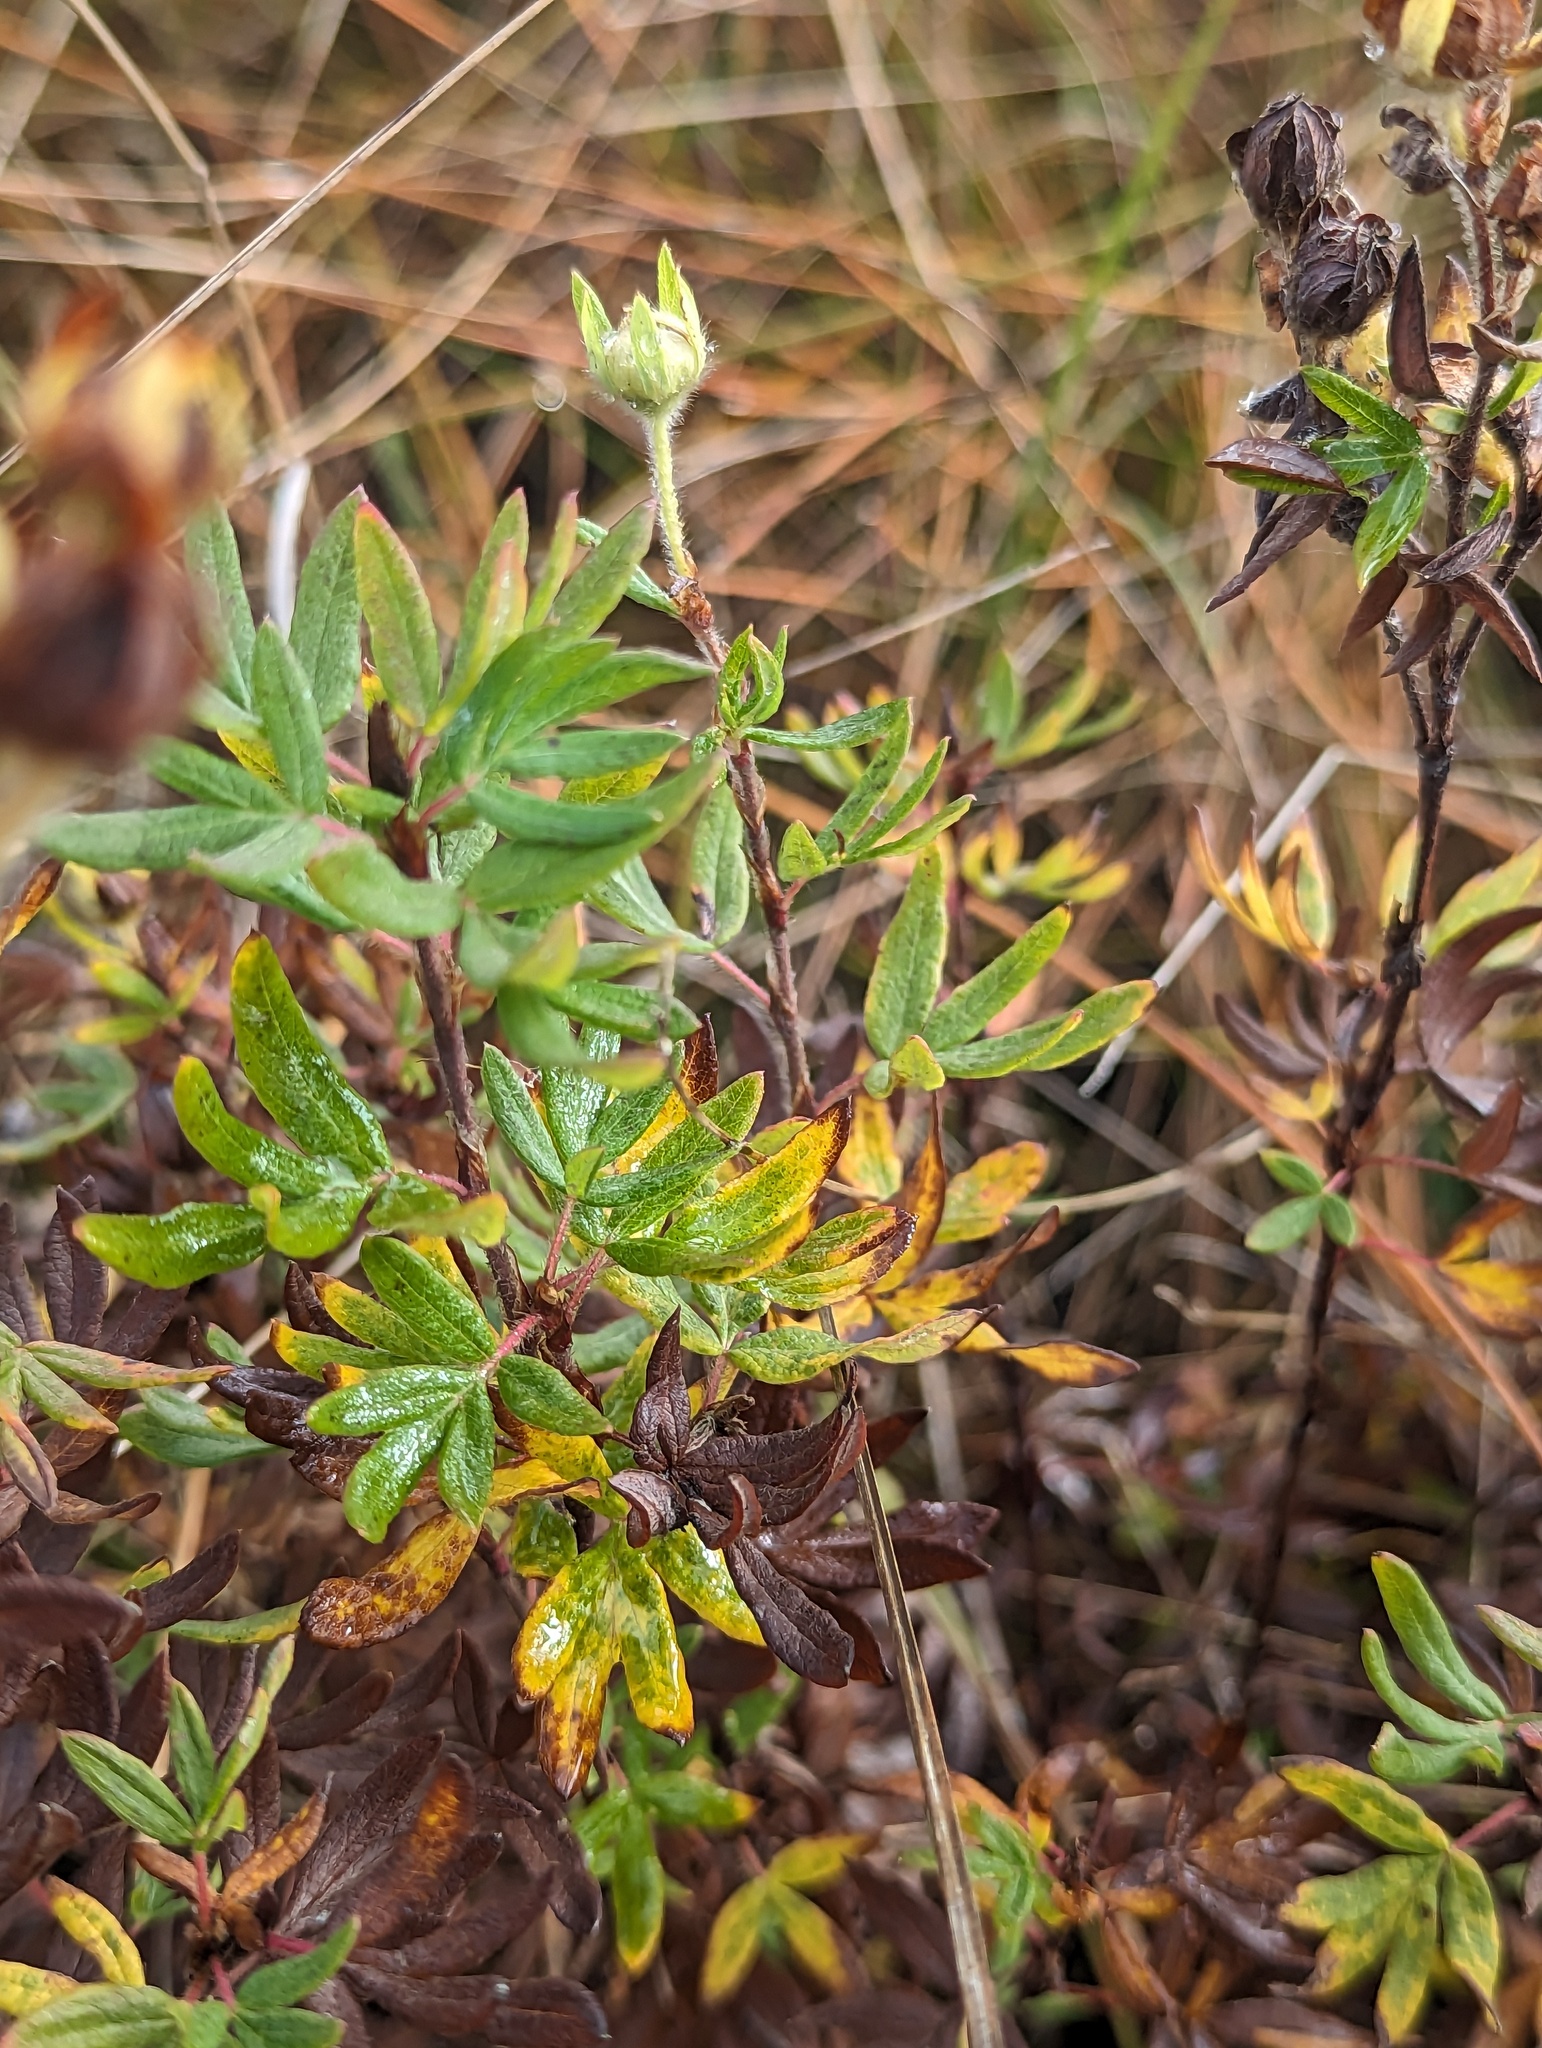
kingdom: Plantae
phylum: Tracheophyta
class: Magnoliopsida
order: Rosales
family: Rosaceae
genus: Dasiphora
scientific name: Dasiphora fruticosa
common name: Shrubby cinquefoil
